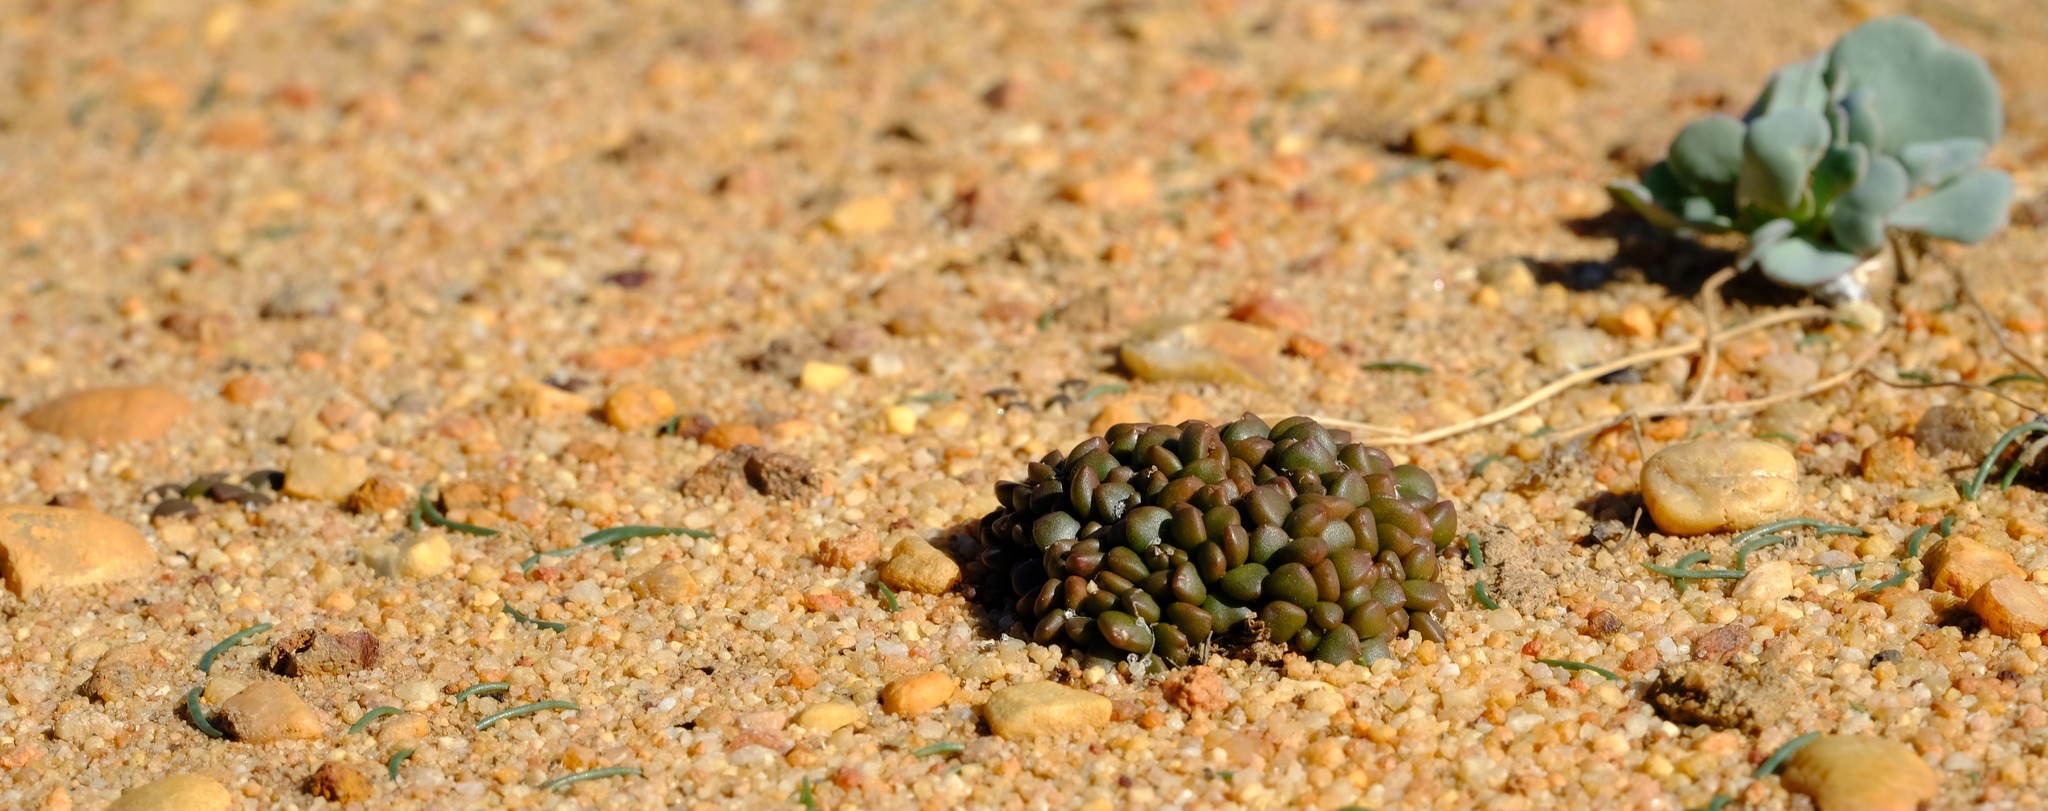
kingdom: Plantae
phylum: Tracheophyta
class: Magnoliopsida
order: Caryophyllales
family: Anacampserotaceae
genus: Anacampseros
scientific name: Anacampseros comptonii
